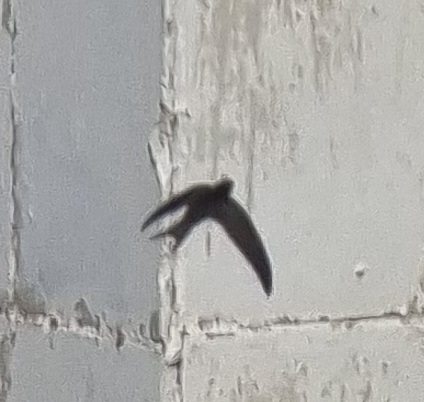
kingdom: Animalia
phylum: Chordata
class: Aves
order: Apodiformes
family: Apodidae
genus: Apus
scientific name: Apus apus
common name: Common swift
